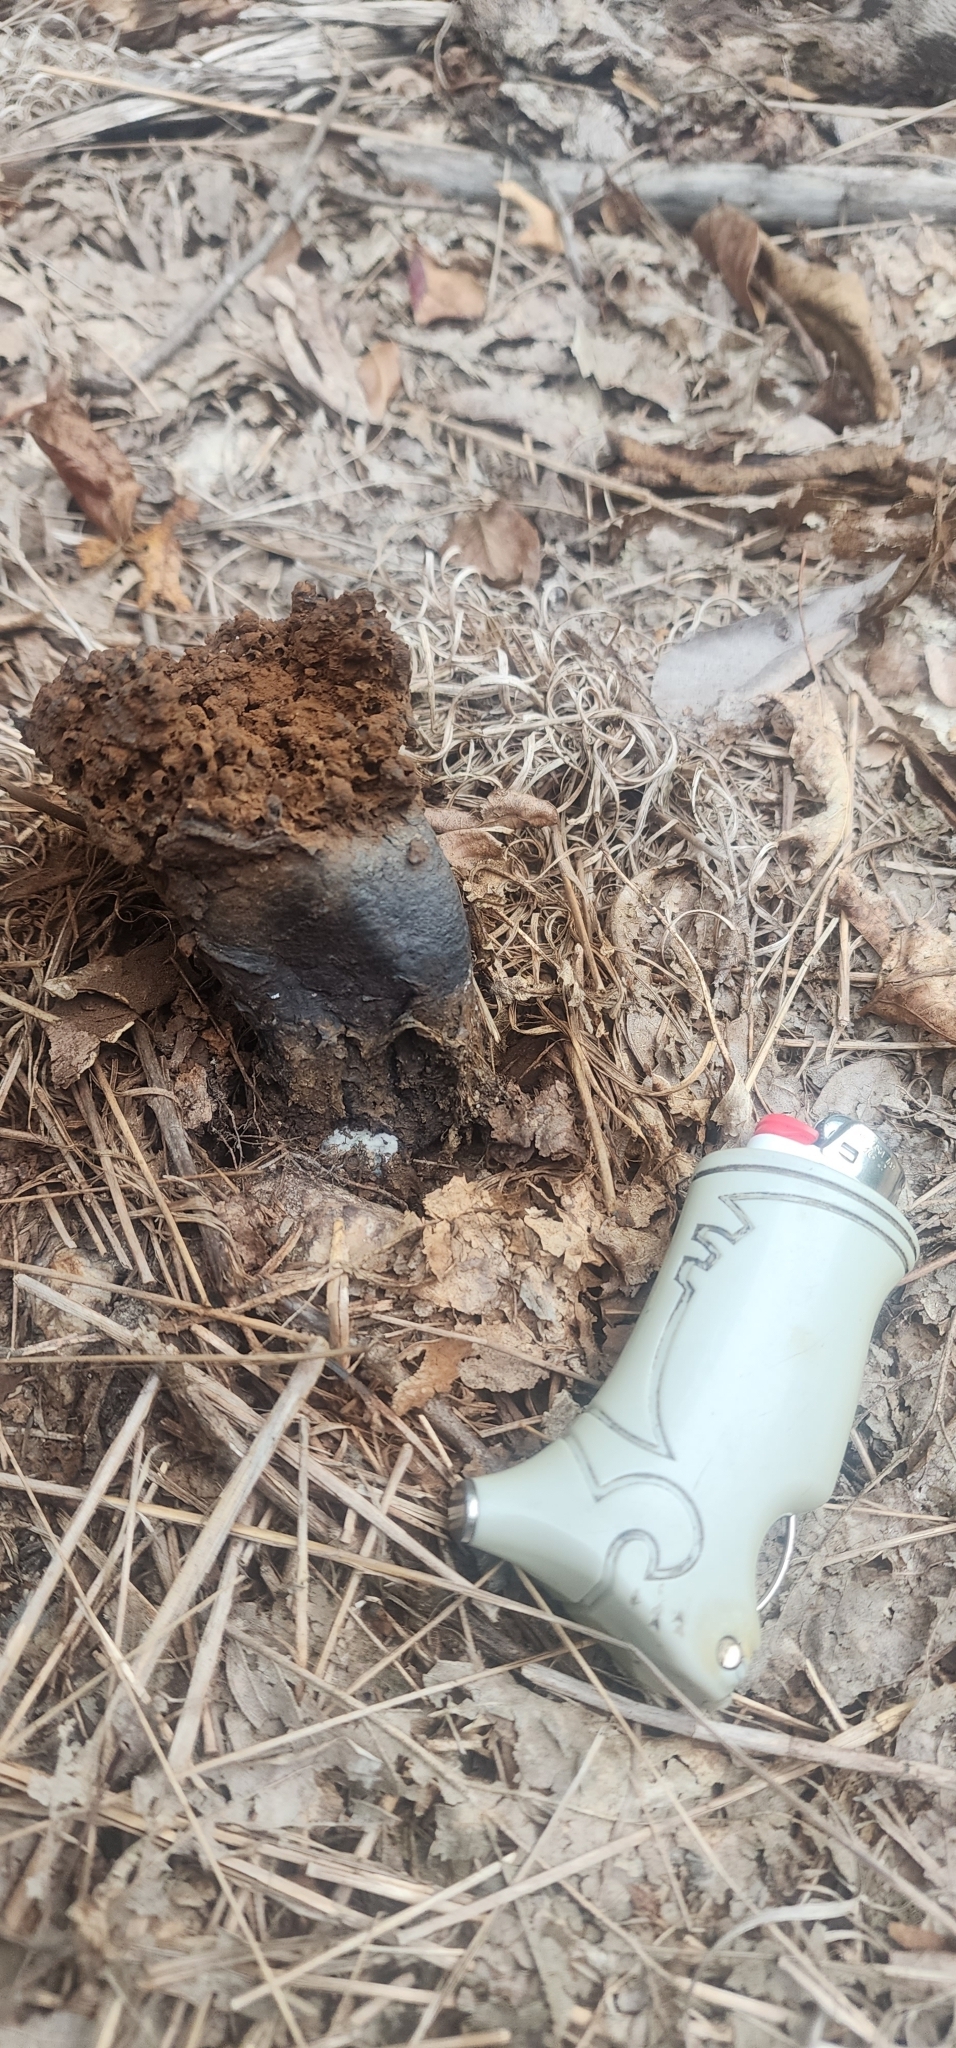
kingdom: Fungi
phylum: Basidiomycota
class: Agaricomycetes
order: Boletales
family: Sclerodermataceae
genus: Pisolithus
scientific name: Pisolithus tinctorius
